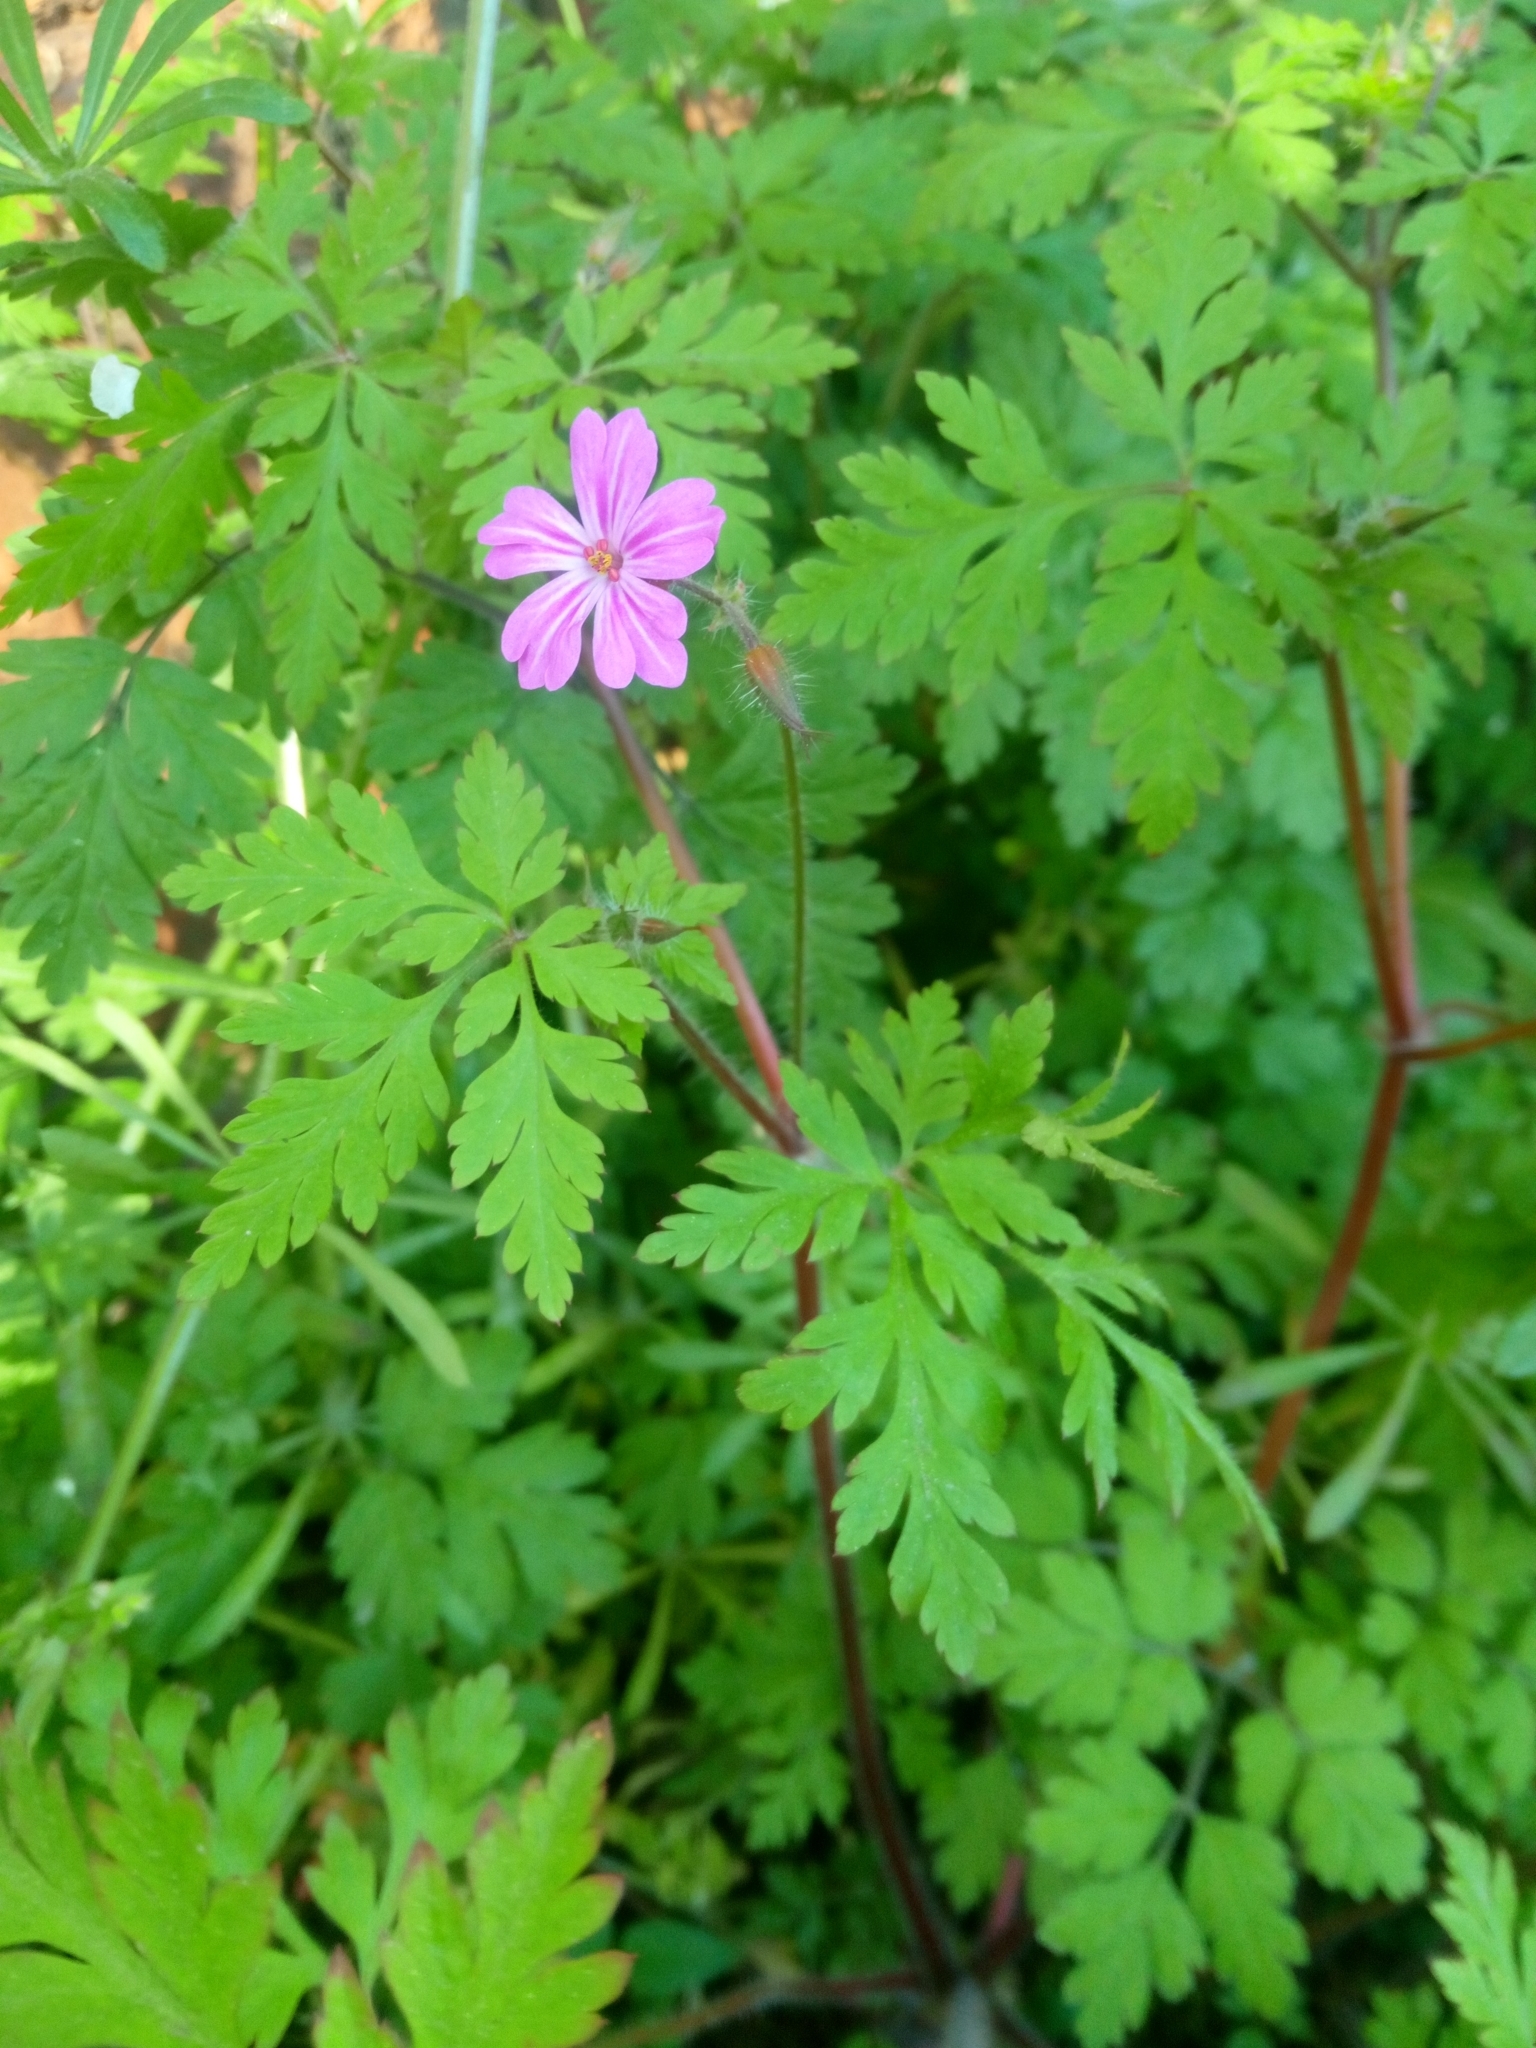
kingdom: Plantae
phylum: Tracheophyta
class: Magnoliopsida
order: Geraniales
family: Geraniaceae
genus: Geranium
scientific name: Geranium robertianum
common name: Herb-robert
